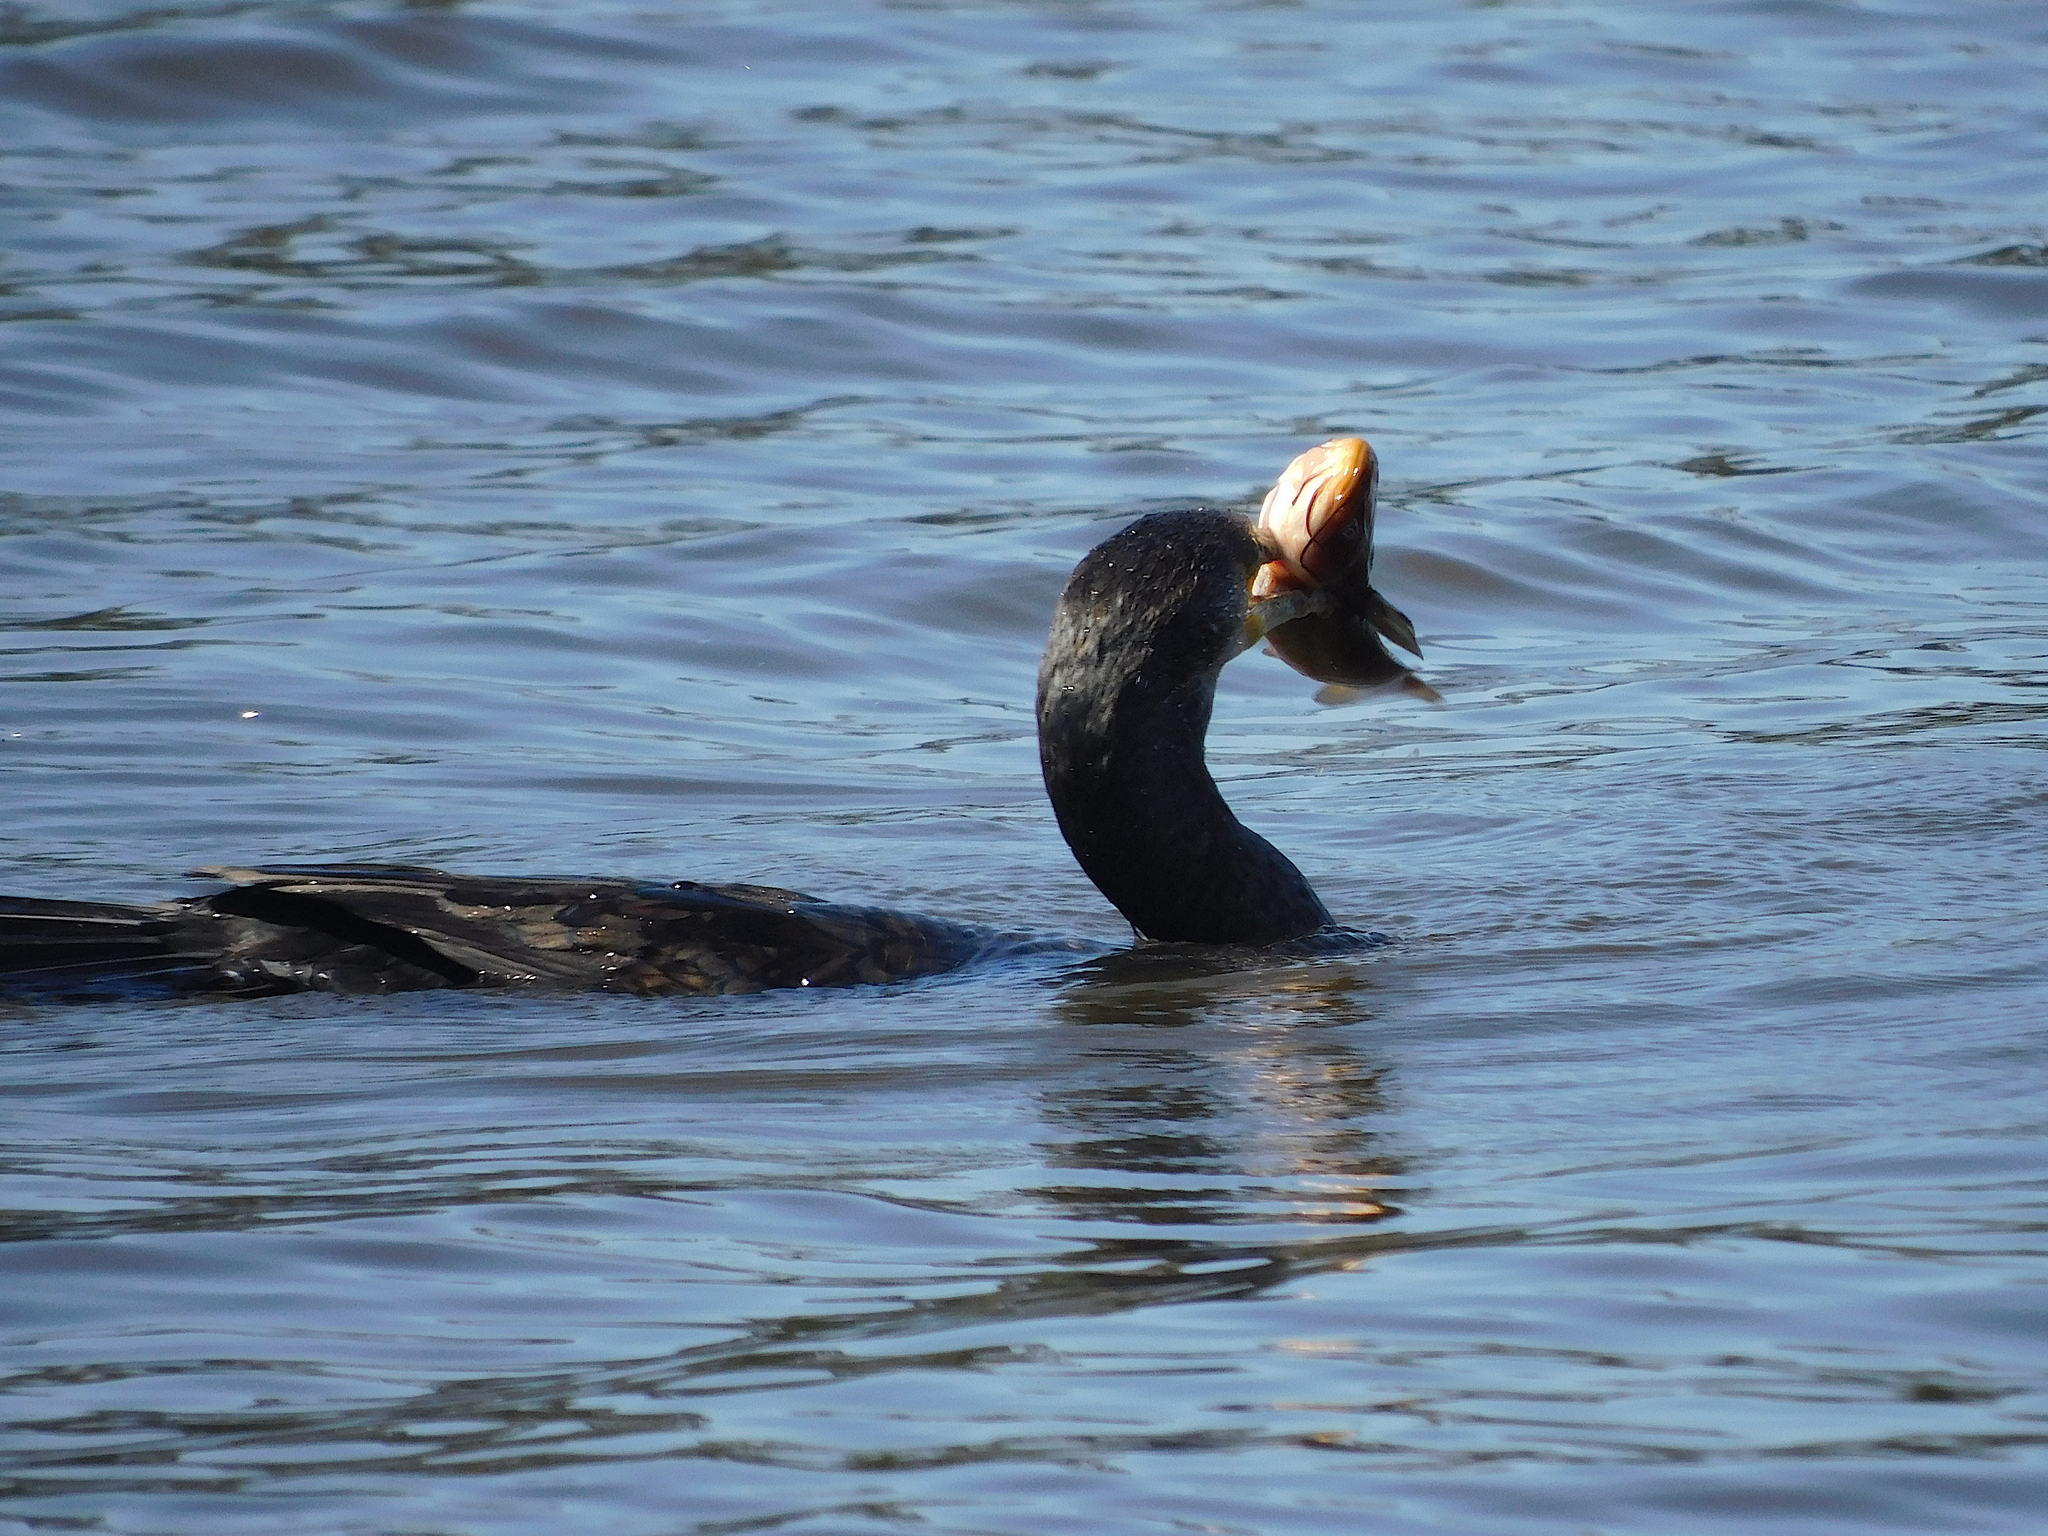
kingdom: Animalia
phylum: Chordata
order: Siluriformes
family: Ictaluridae
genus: Ameiurus
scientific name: Ameiurus nebulosus
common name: Brown bullhead
